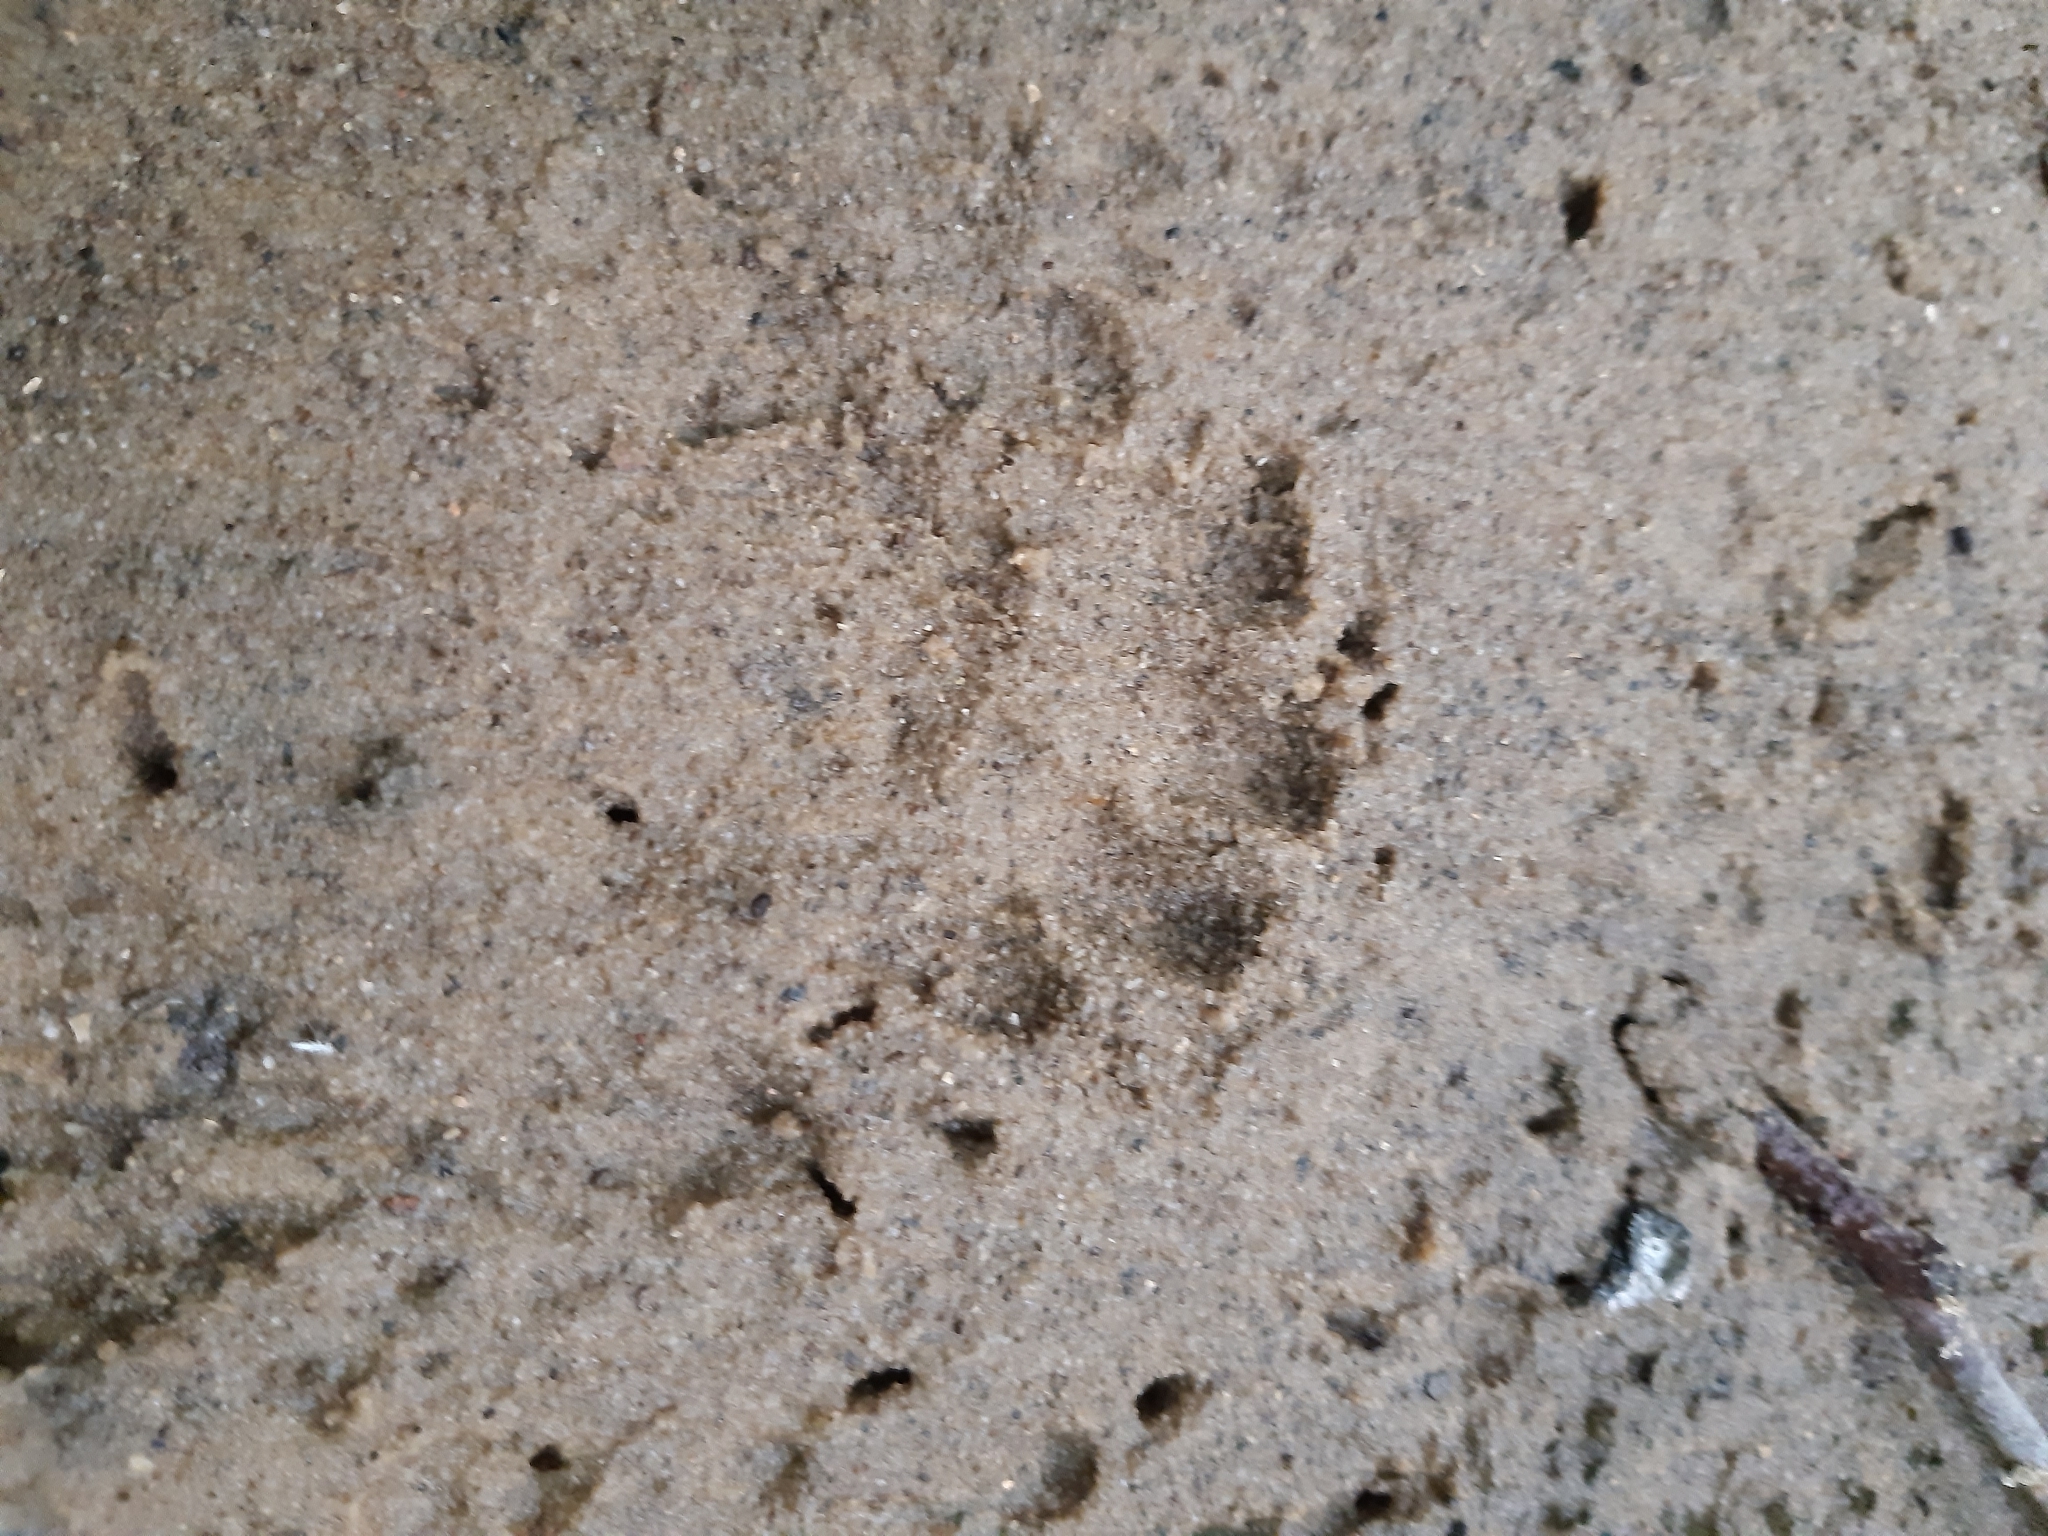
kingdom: Animalia
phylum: Chordata
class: Mammalia
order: Carnivora
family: Mustelidae
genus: Meles
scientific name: Meles meles
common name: Eurasian badger
